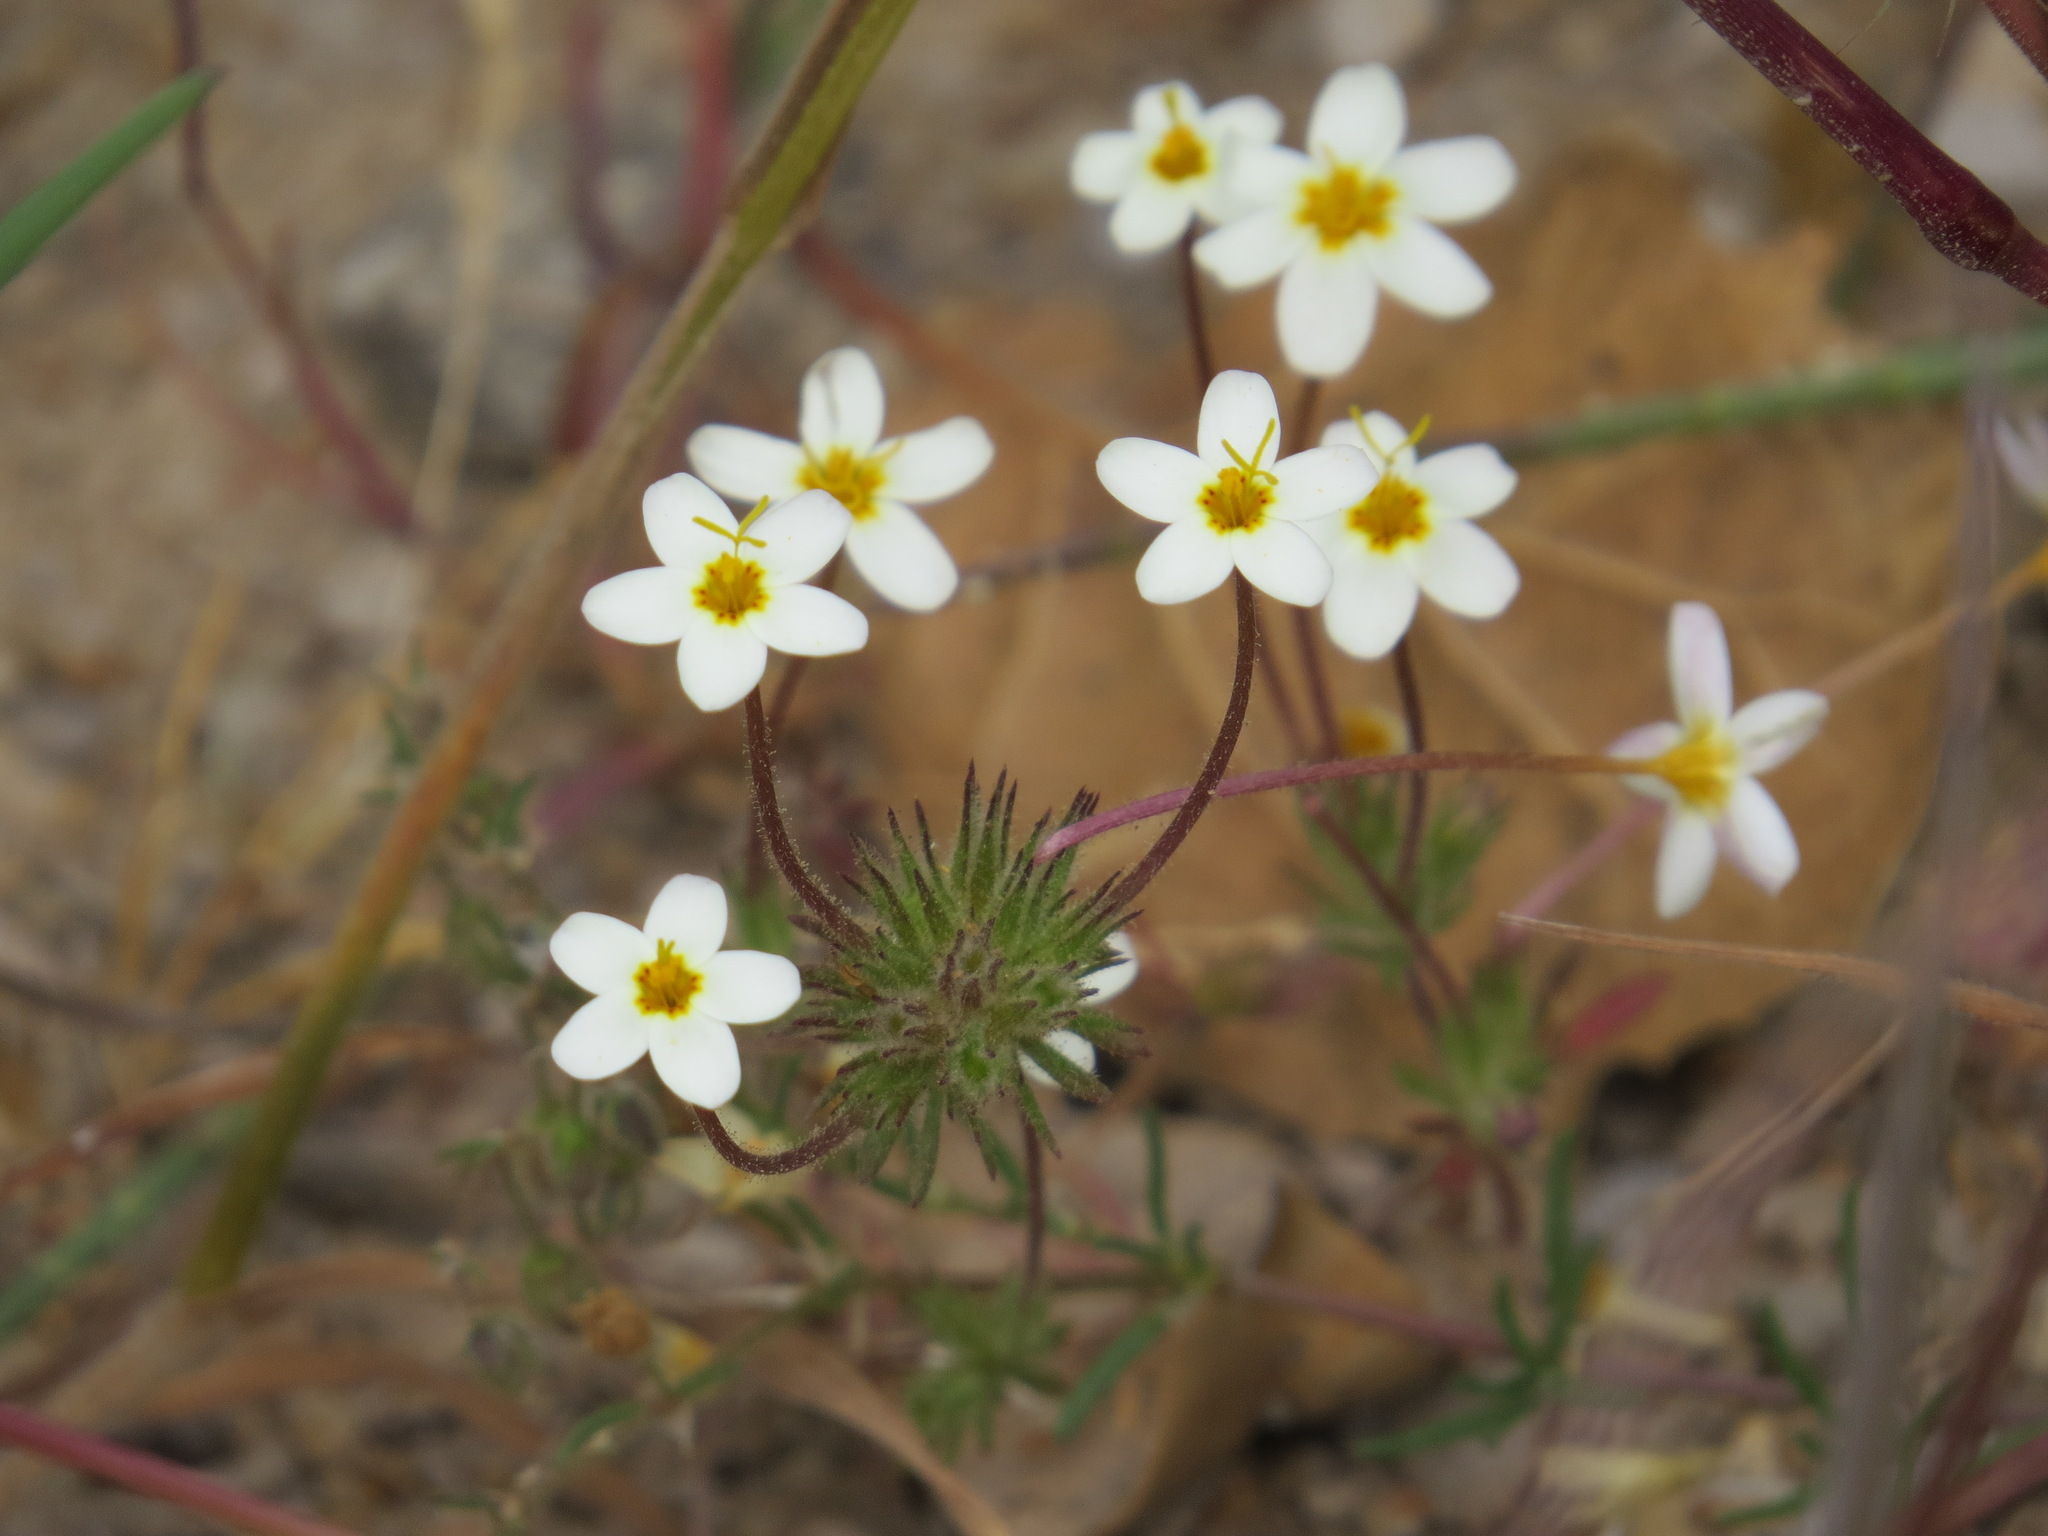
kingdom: Plantae
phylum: Tracheophyta
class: Magnoliopsida
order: Ericales
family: Polemoniaceae
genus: Leptosiphon
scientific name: Leptosiphon parviflorus
